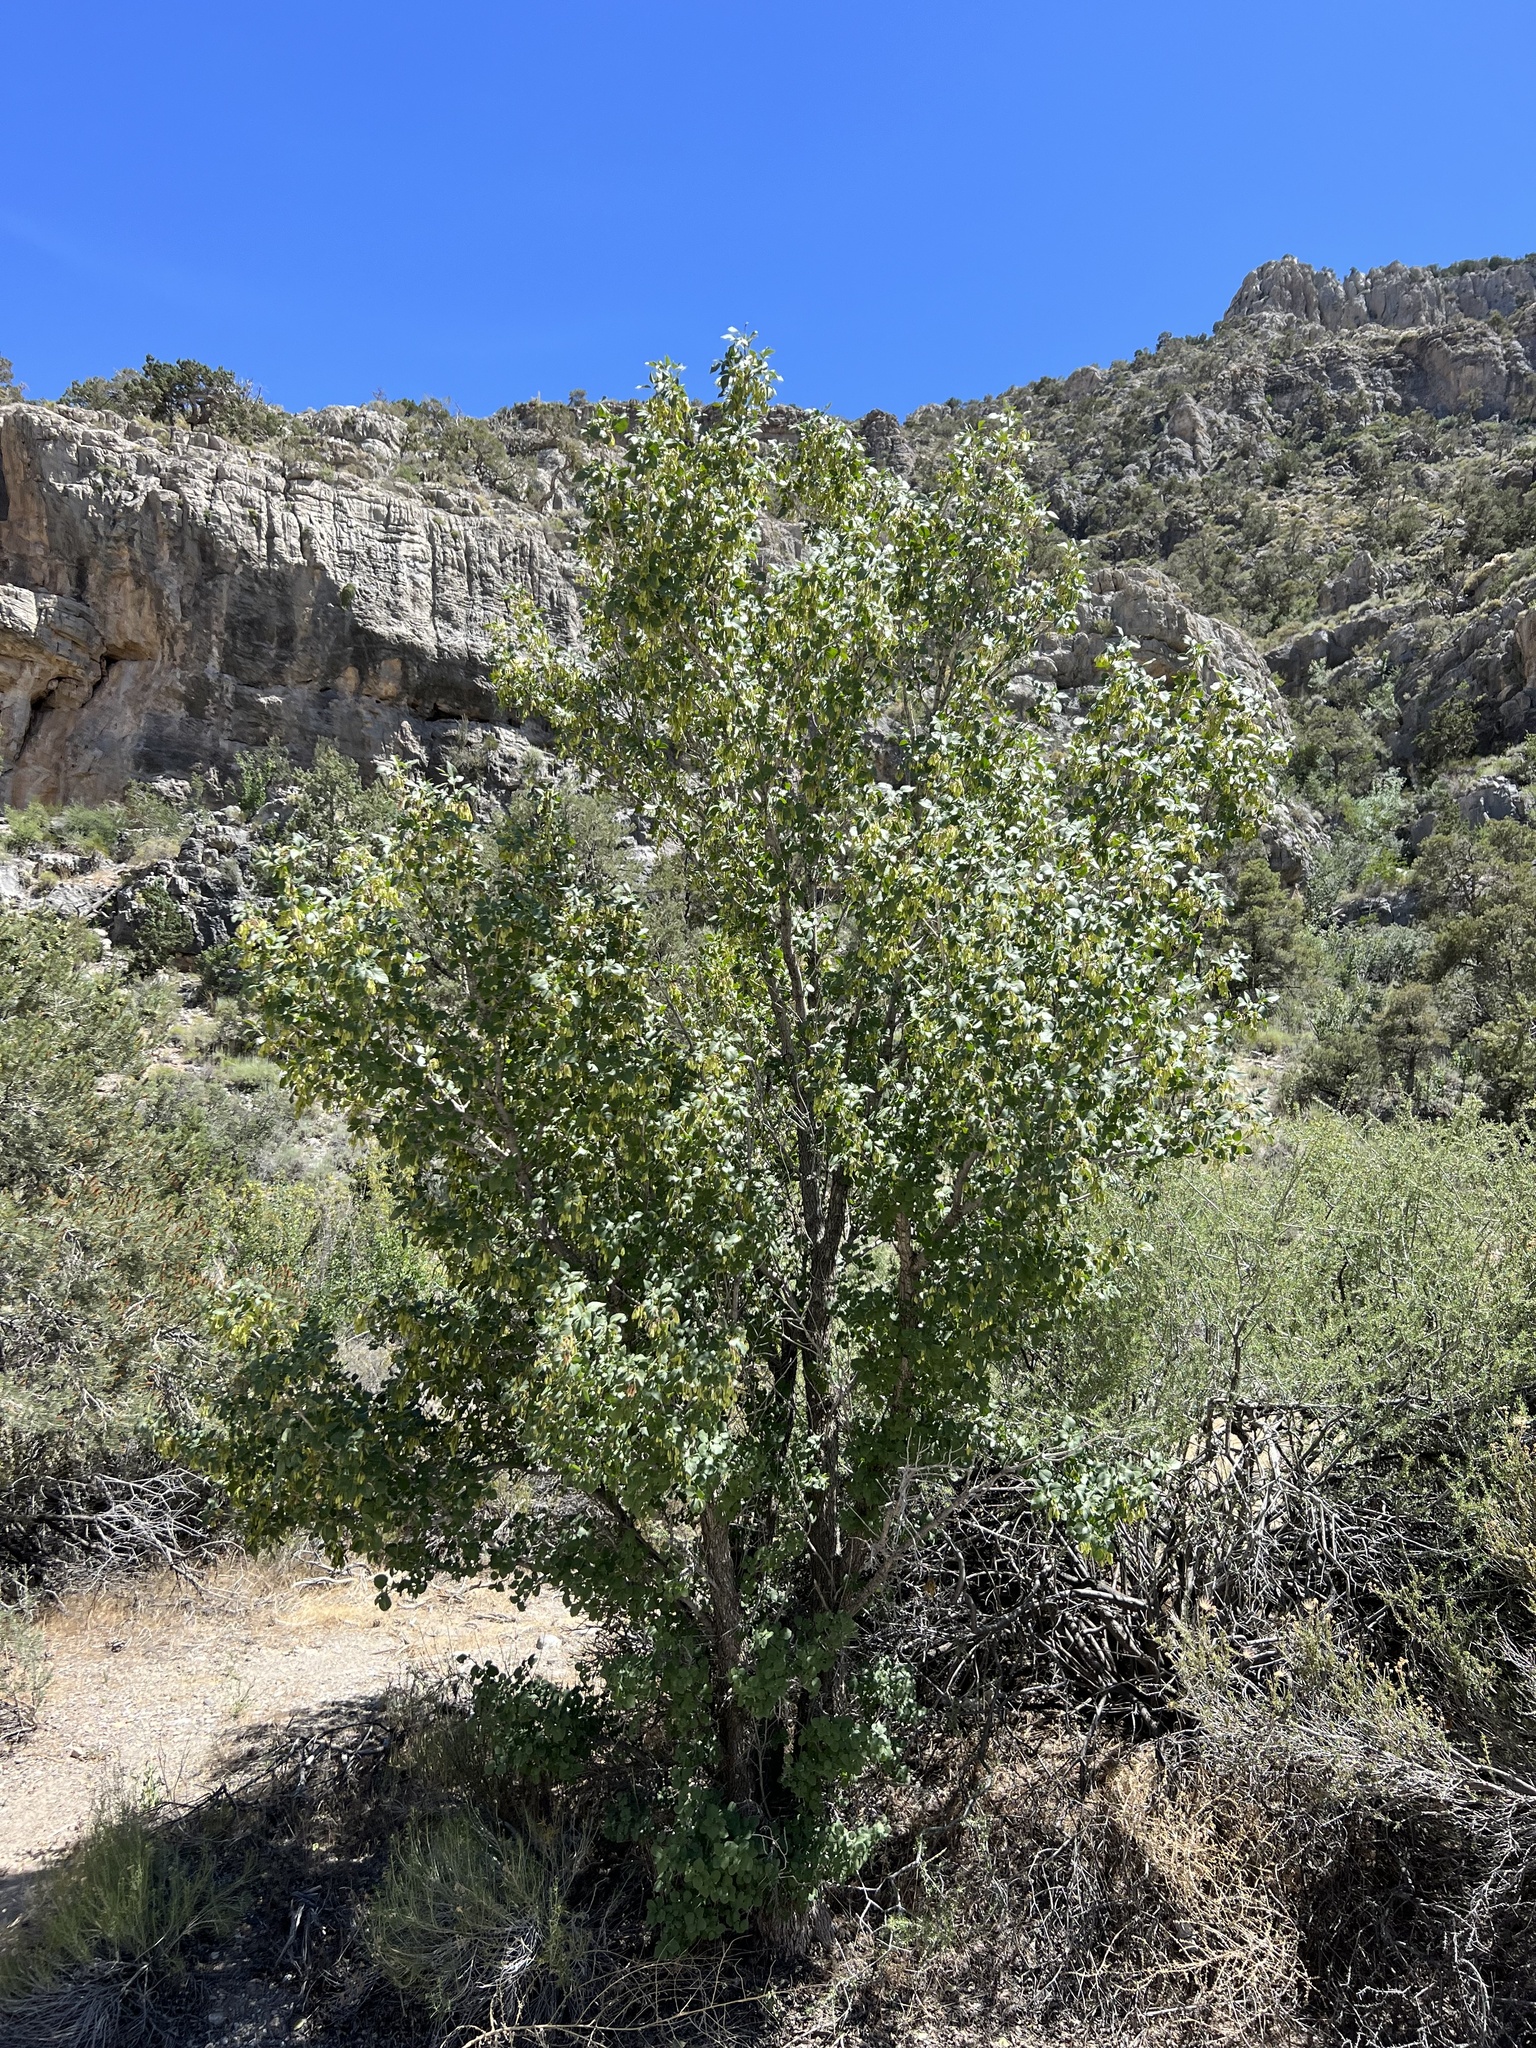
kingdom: Plantae
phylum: Tracheophyta
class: Magnoliopsida
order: Lamiales
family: Oleaceae
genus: Fraxinus
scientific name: Fraxinus anomala
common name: Utah ash
